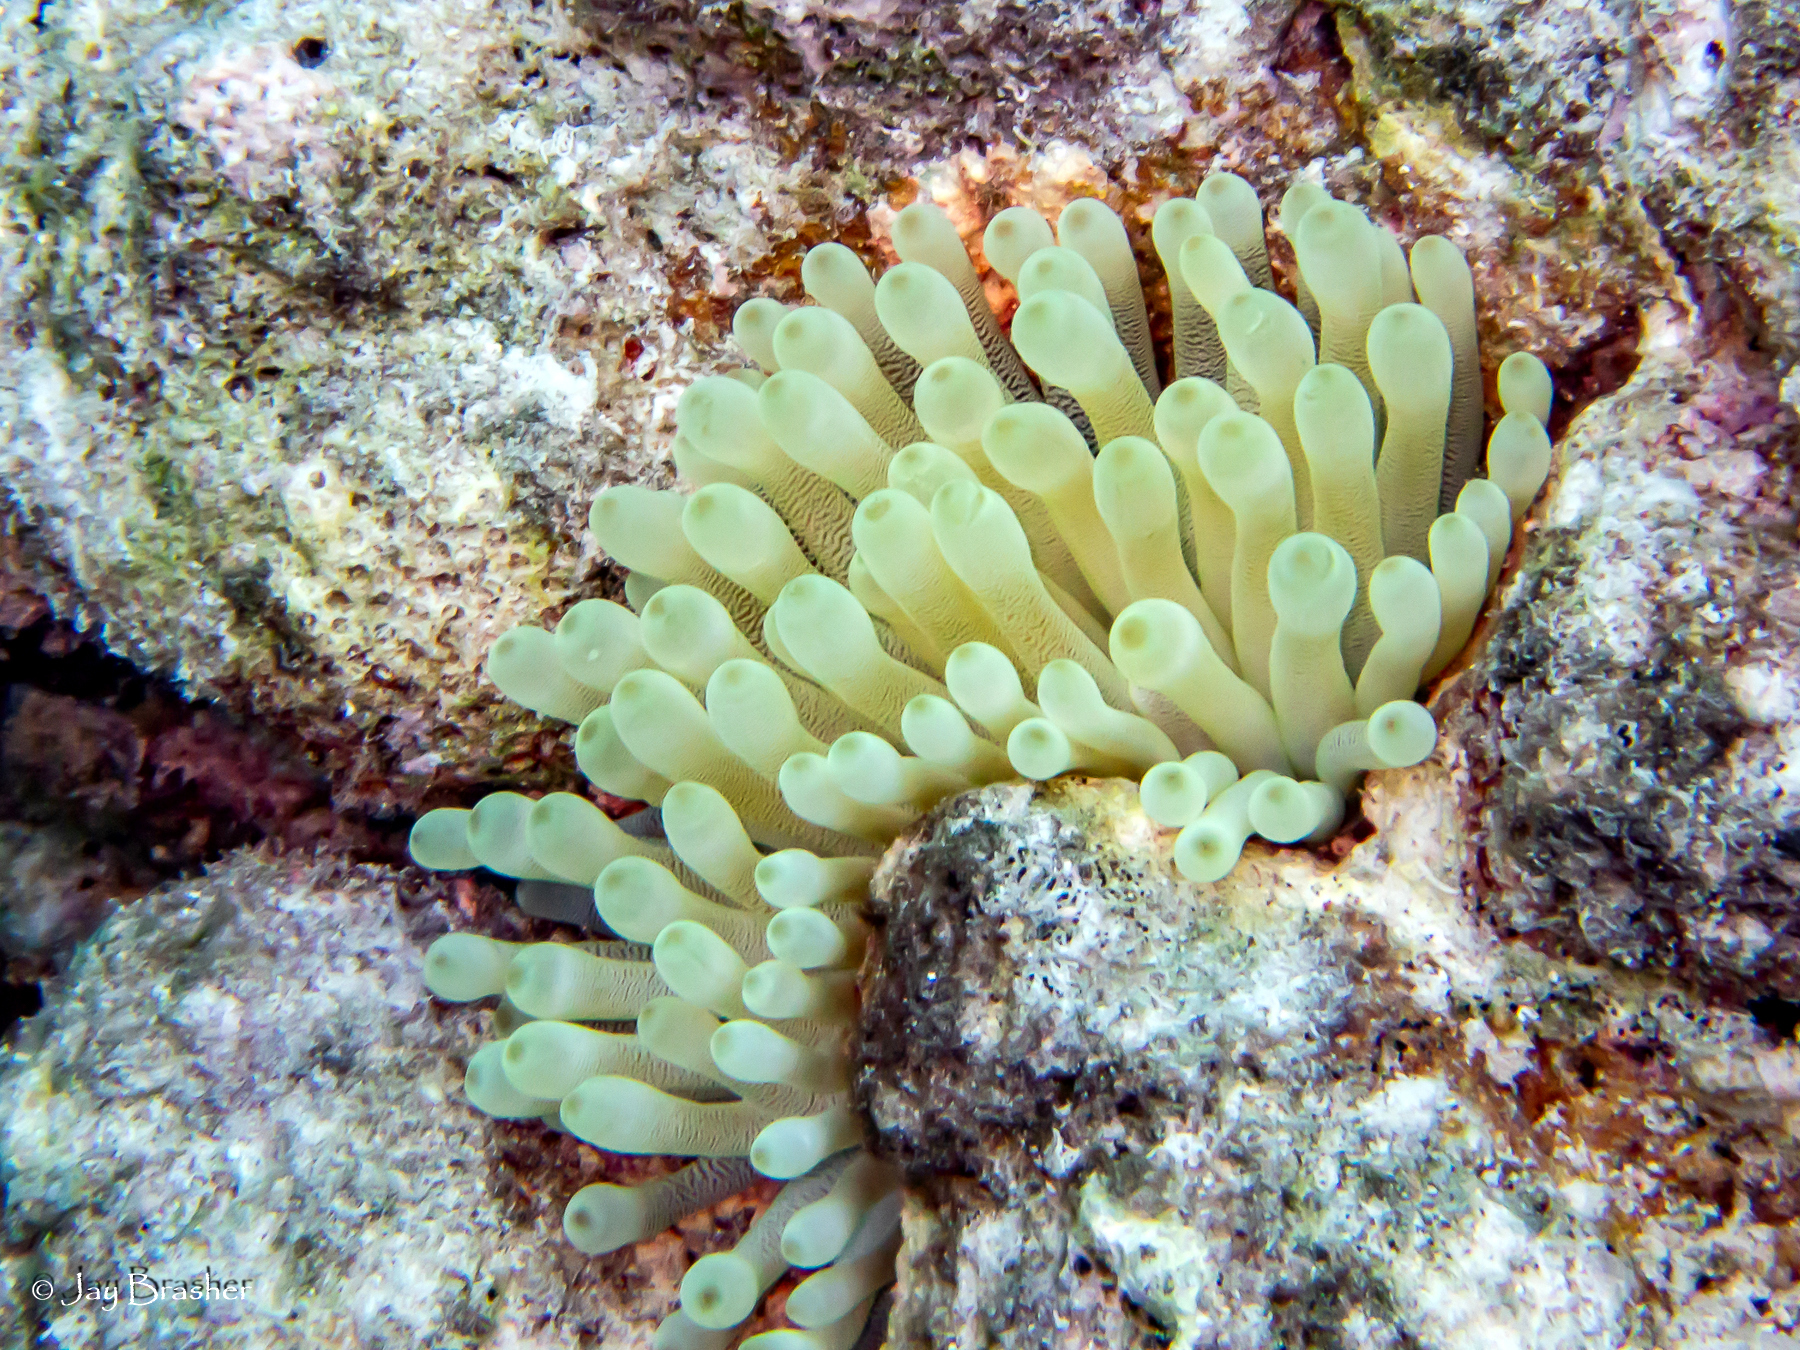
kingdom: Animalia
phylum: Cnidaria
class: Anthozoa
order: Actiniaria
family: Actiniidae
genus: Condylactis
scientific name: Condylactis gigantea
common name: Giant caribbean anemone
